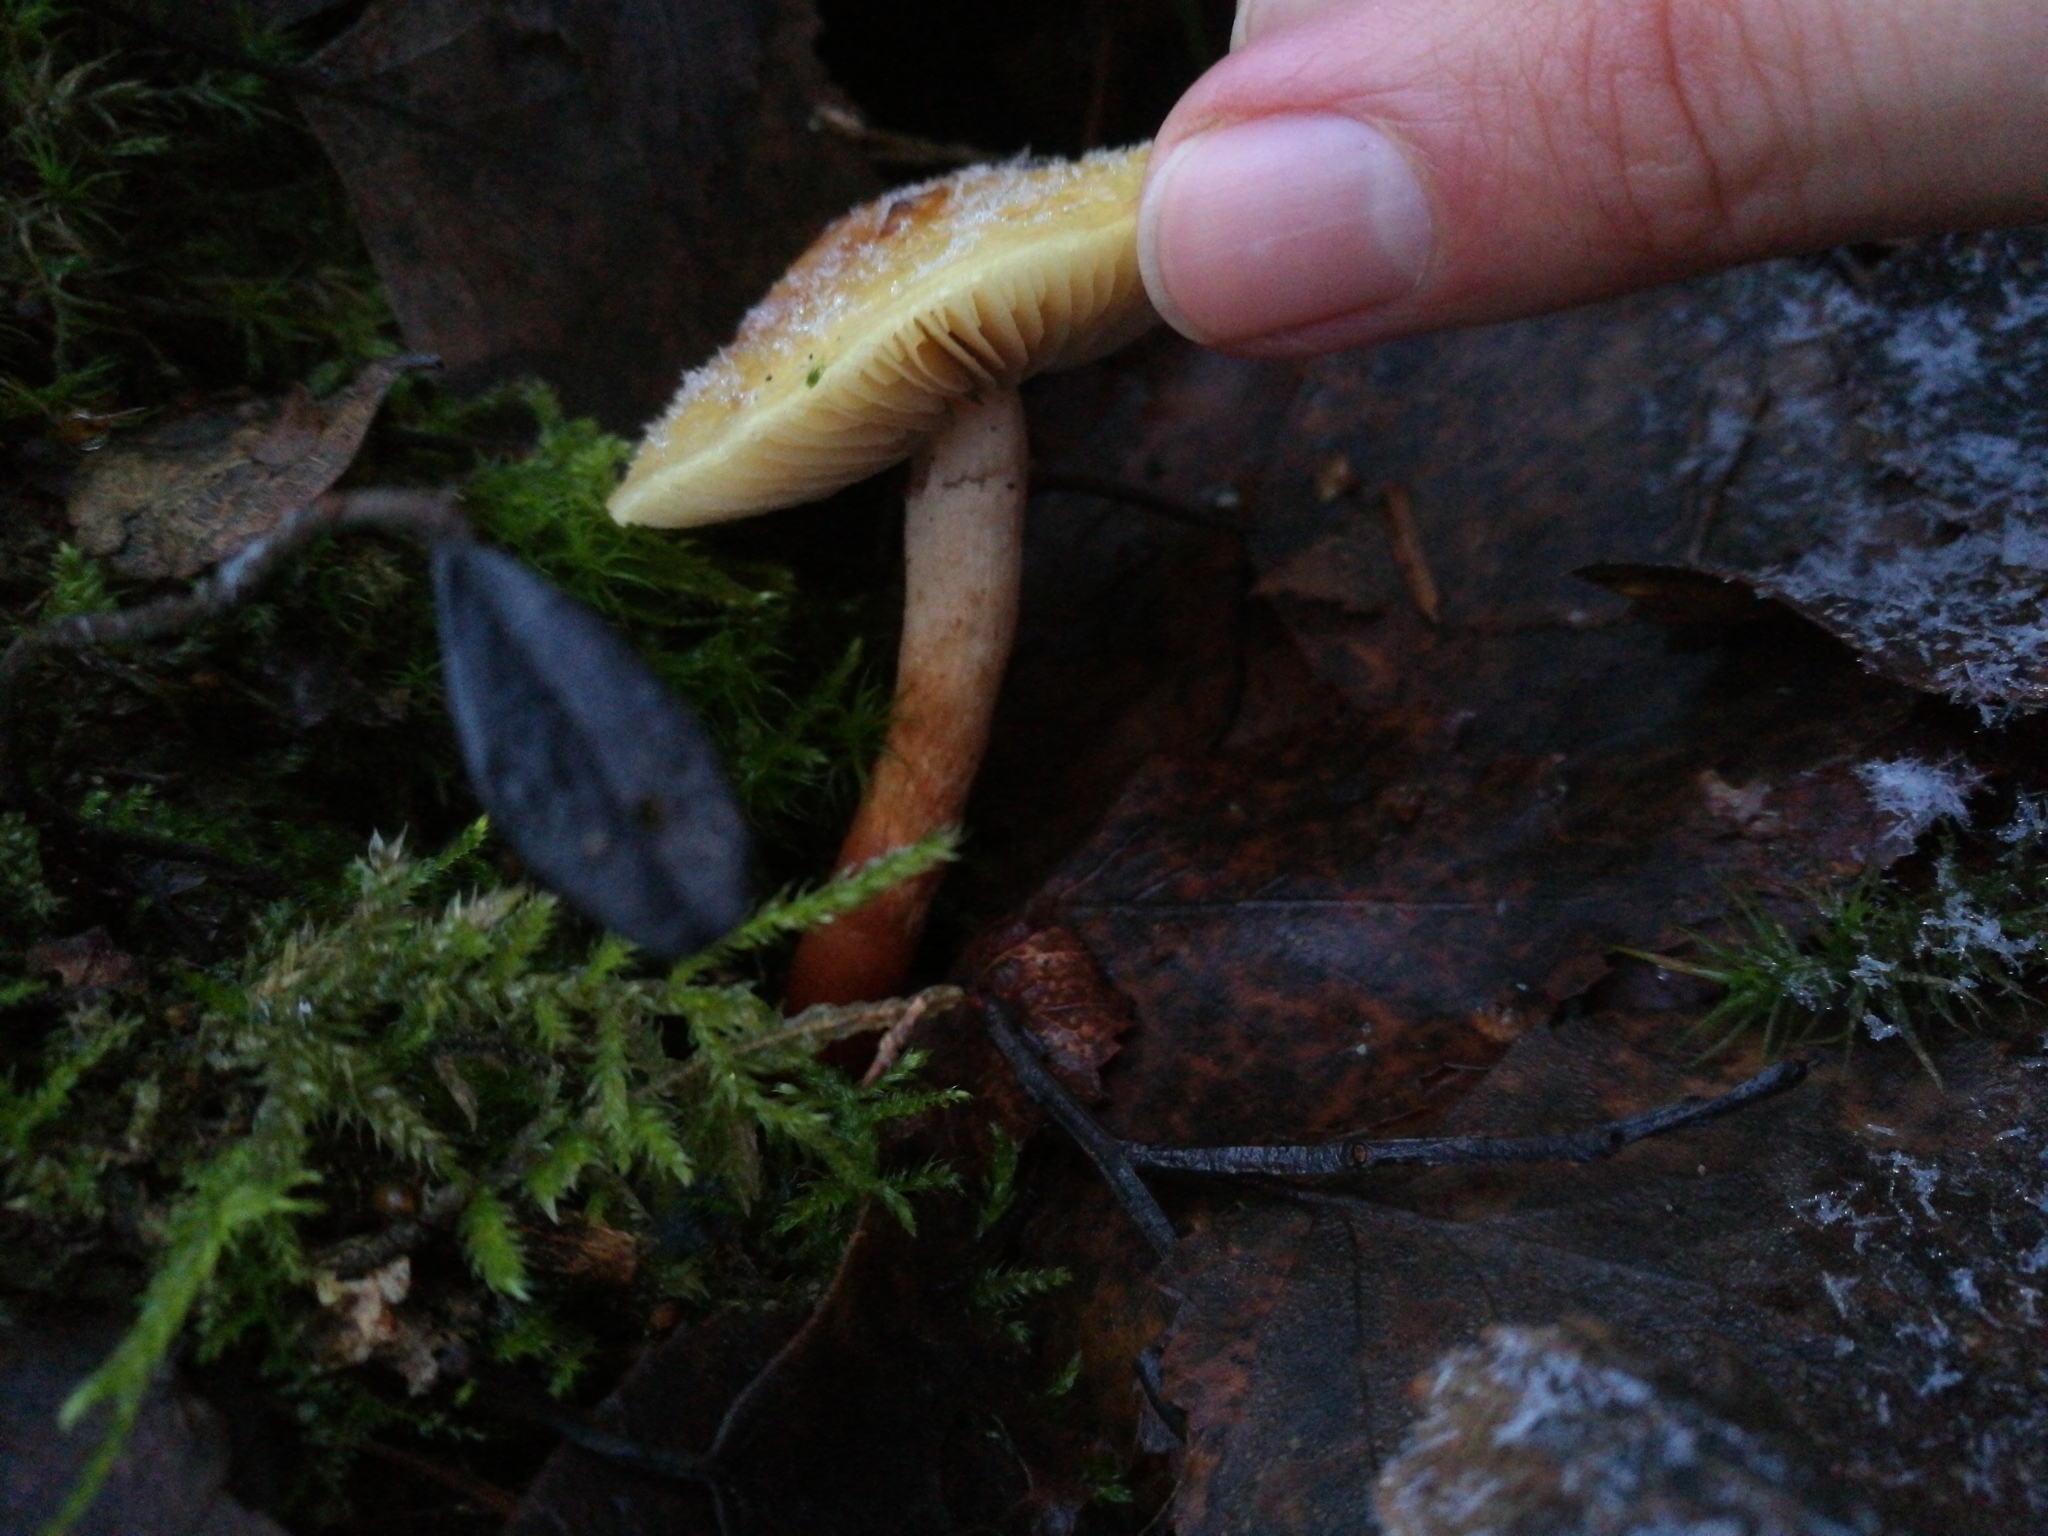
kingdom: Fungi
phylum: Basidiomycota
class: Agaricomycetes
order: Agaricales
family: Strophariaceae
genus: Hypholoma
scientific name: Hypholoma capnoides
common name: Conifer tuft
